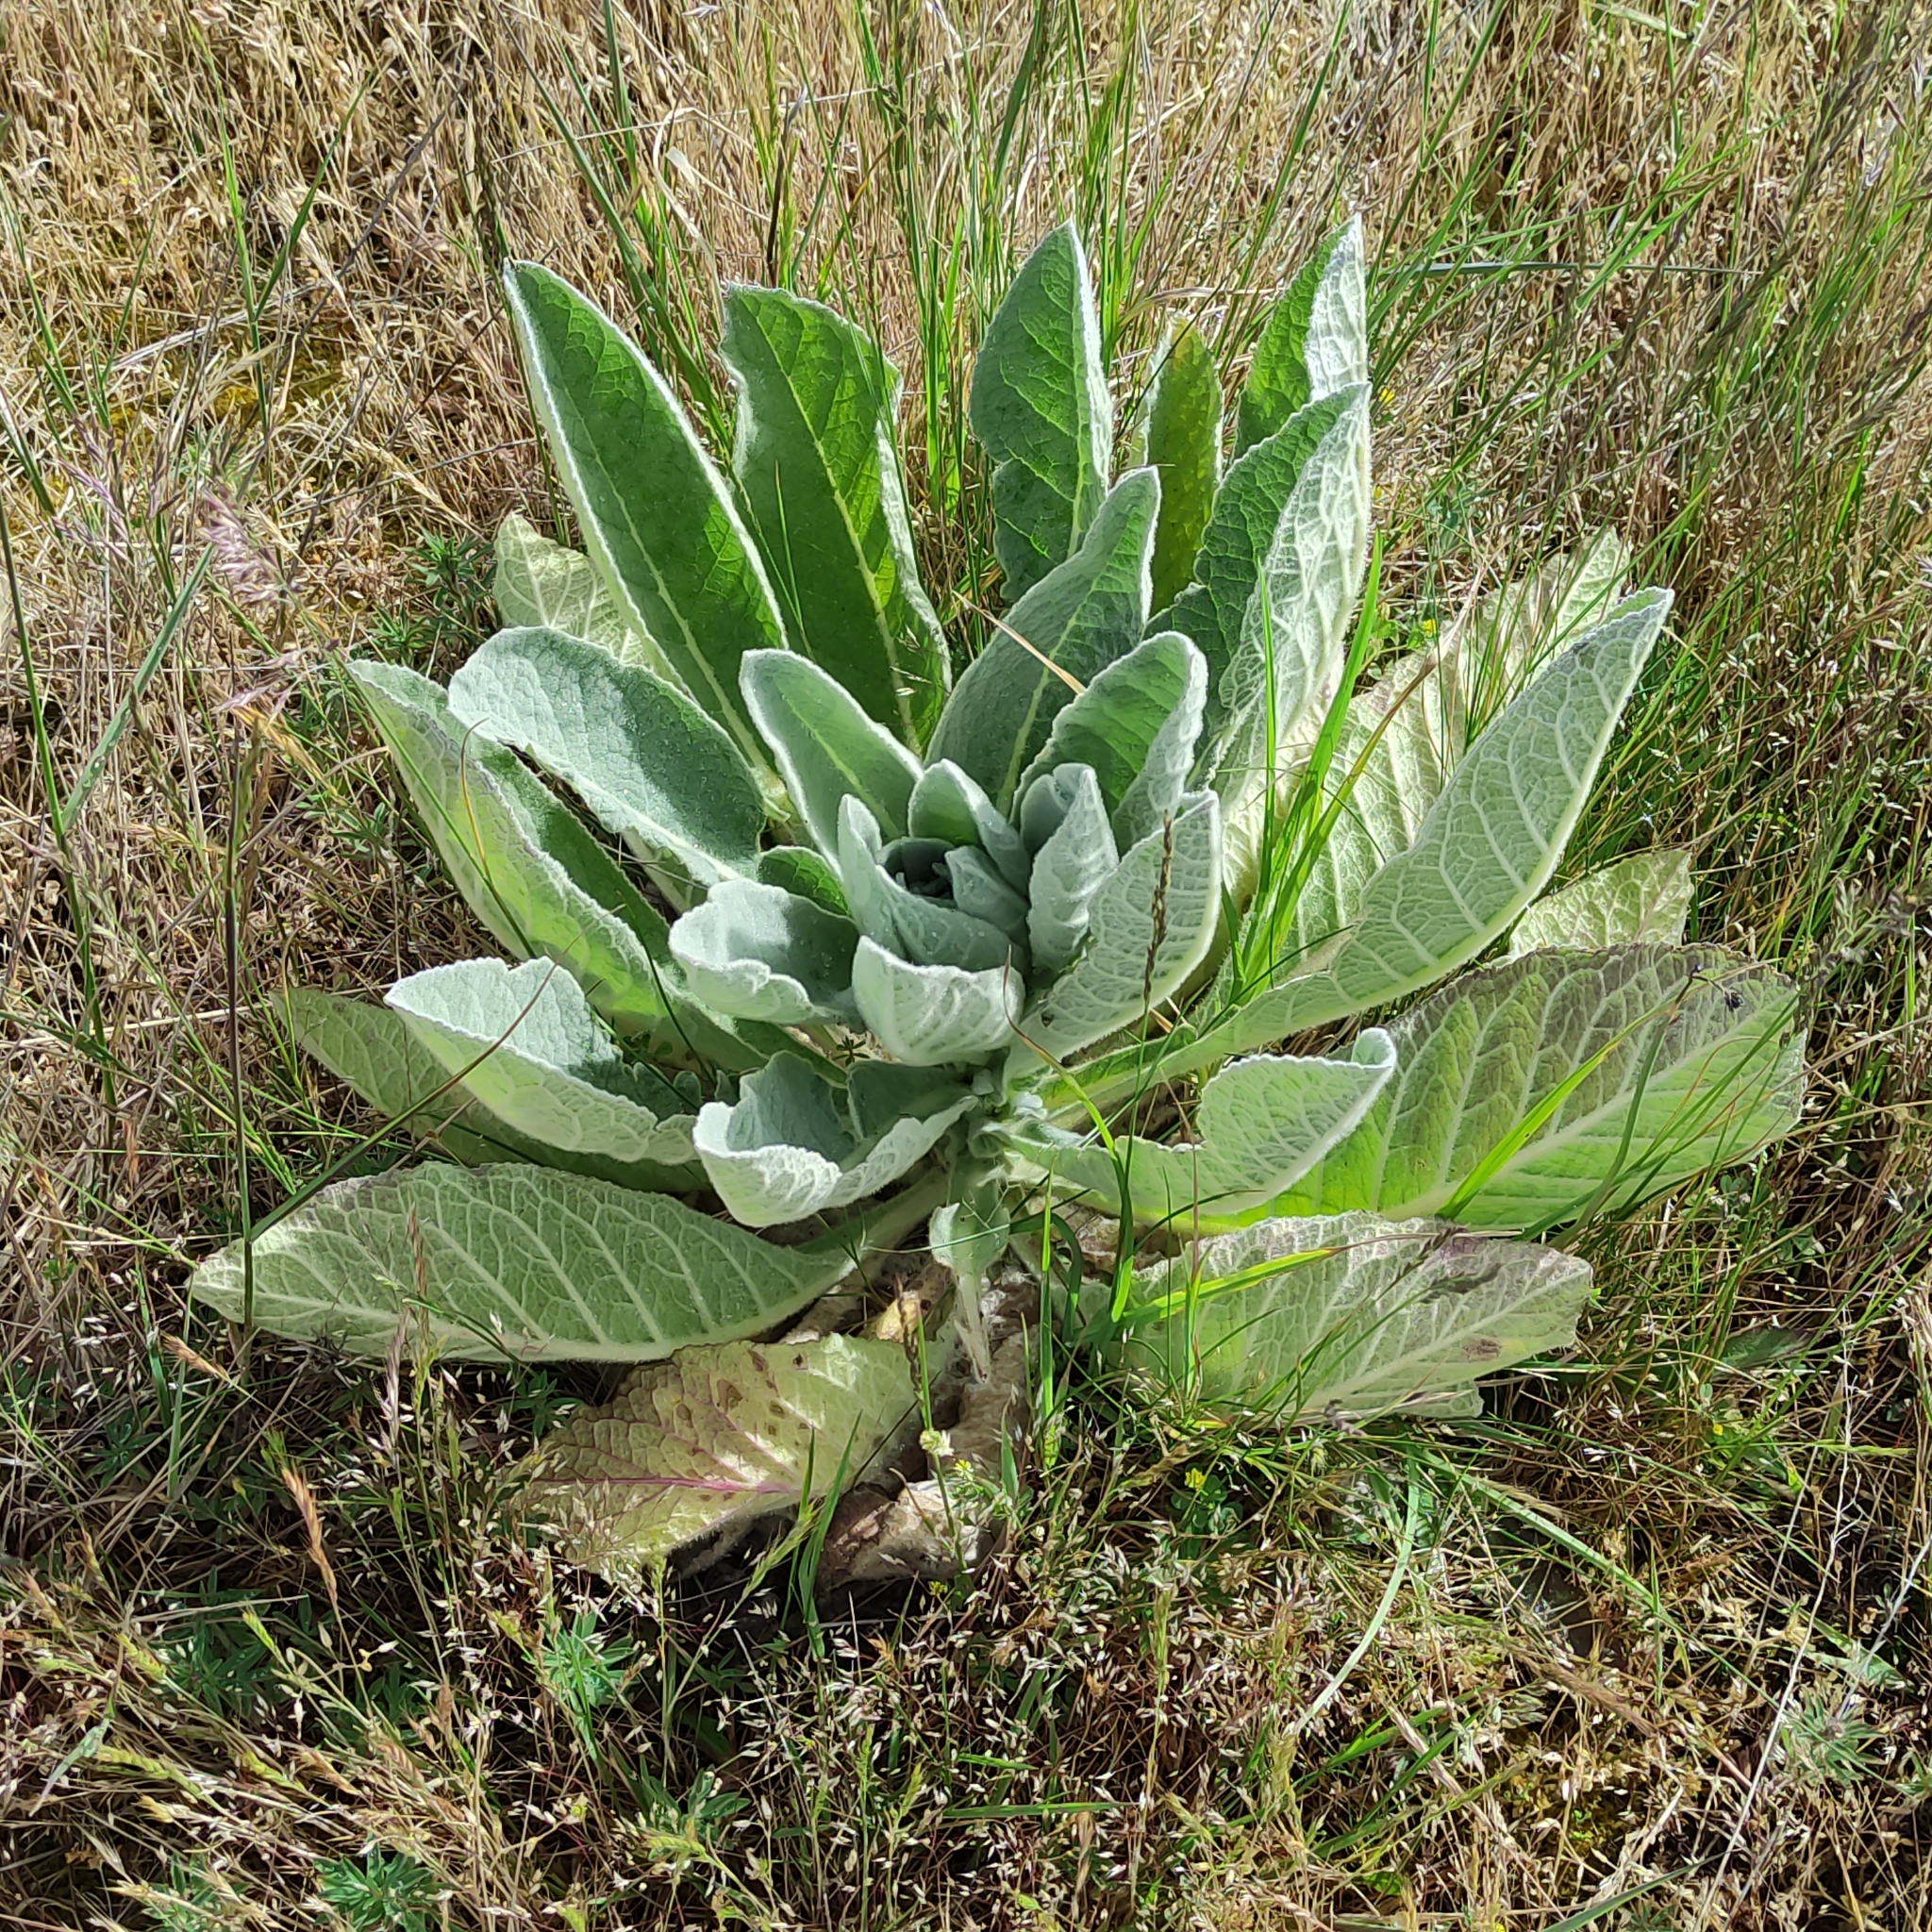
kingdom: Plantae
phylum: Tracheophyta
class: Magnoliopsida
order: Lamiales
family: Scrophulariaceae
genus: Verbascum
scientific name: Verbascum thapsus
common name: Common mullein
